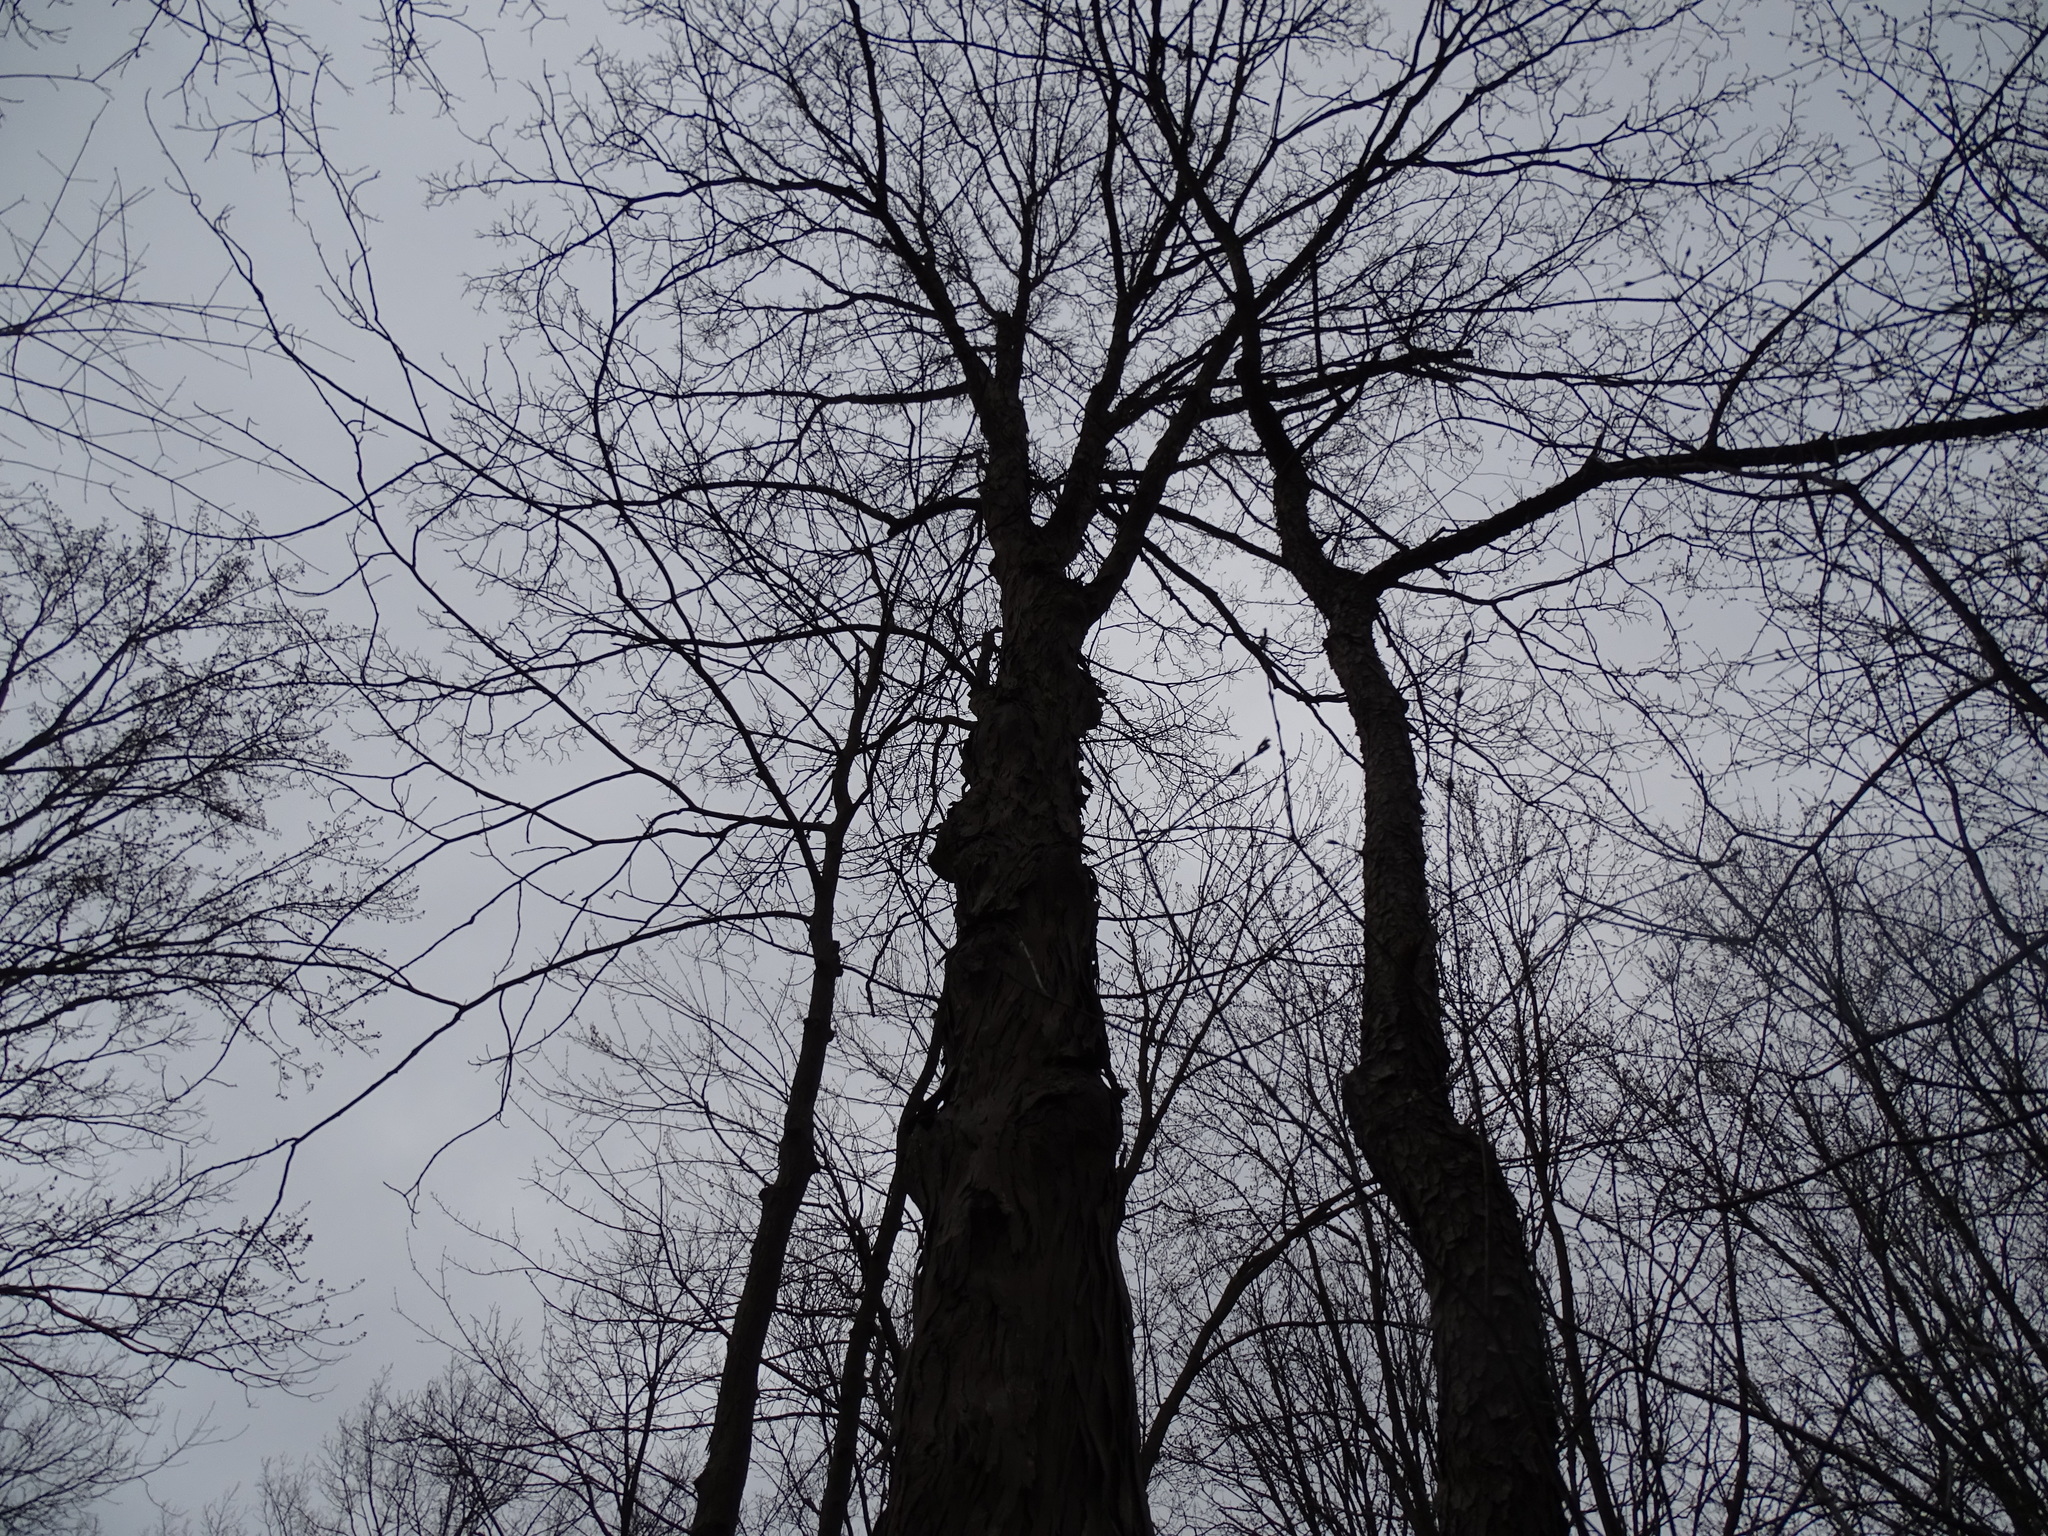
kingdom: Plantae
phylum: Tracheophyta
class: Magnoliopsida
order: Fagales
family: Juglandaceae
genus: Carya
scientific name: Carya ovata
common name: Shagbark hickory
